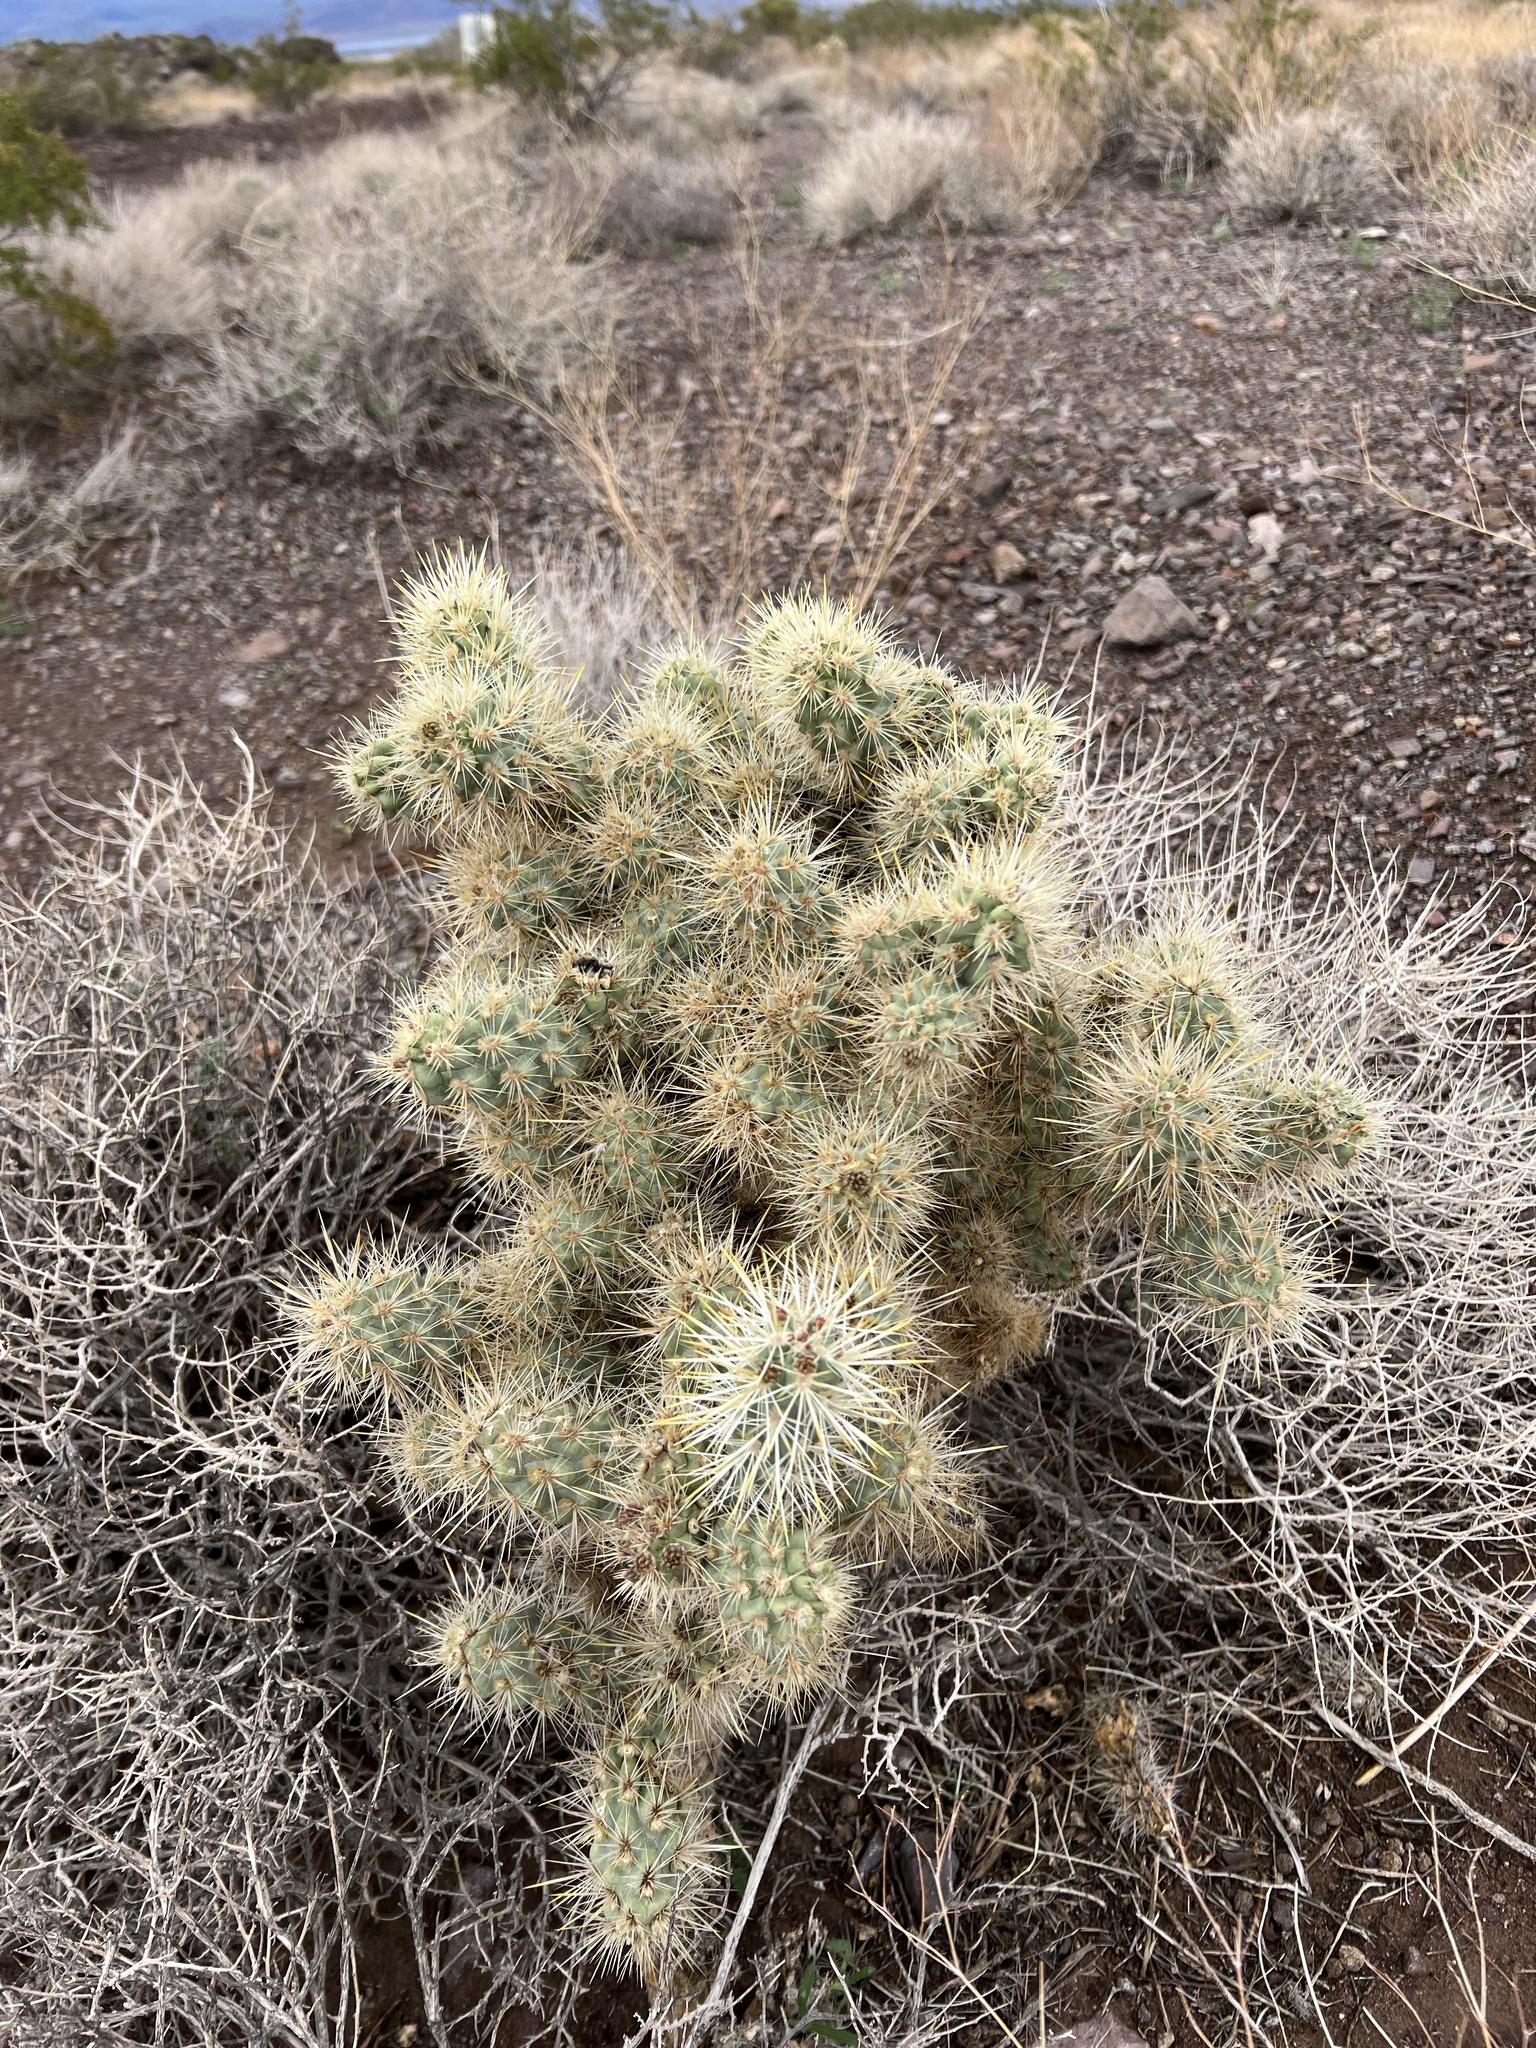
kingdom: Plantae
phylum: Tracheophyta
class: Magnoliopsida
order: Caryophyllales
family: Cactaceae
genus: Cylindropuntia
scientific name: Cylindropuntia echinocarpa
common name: Ground cholla
